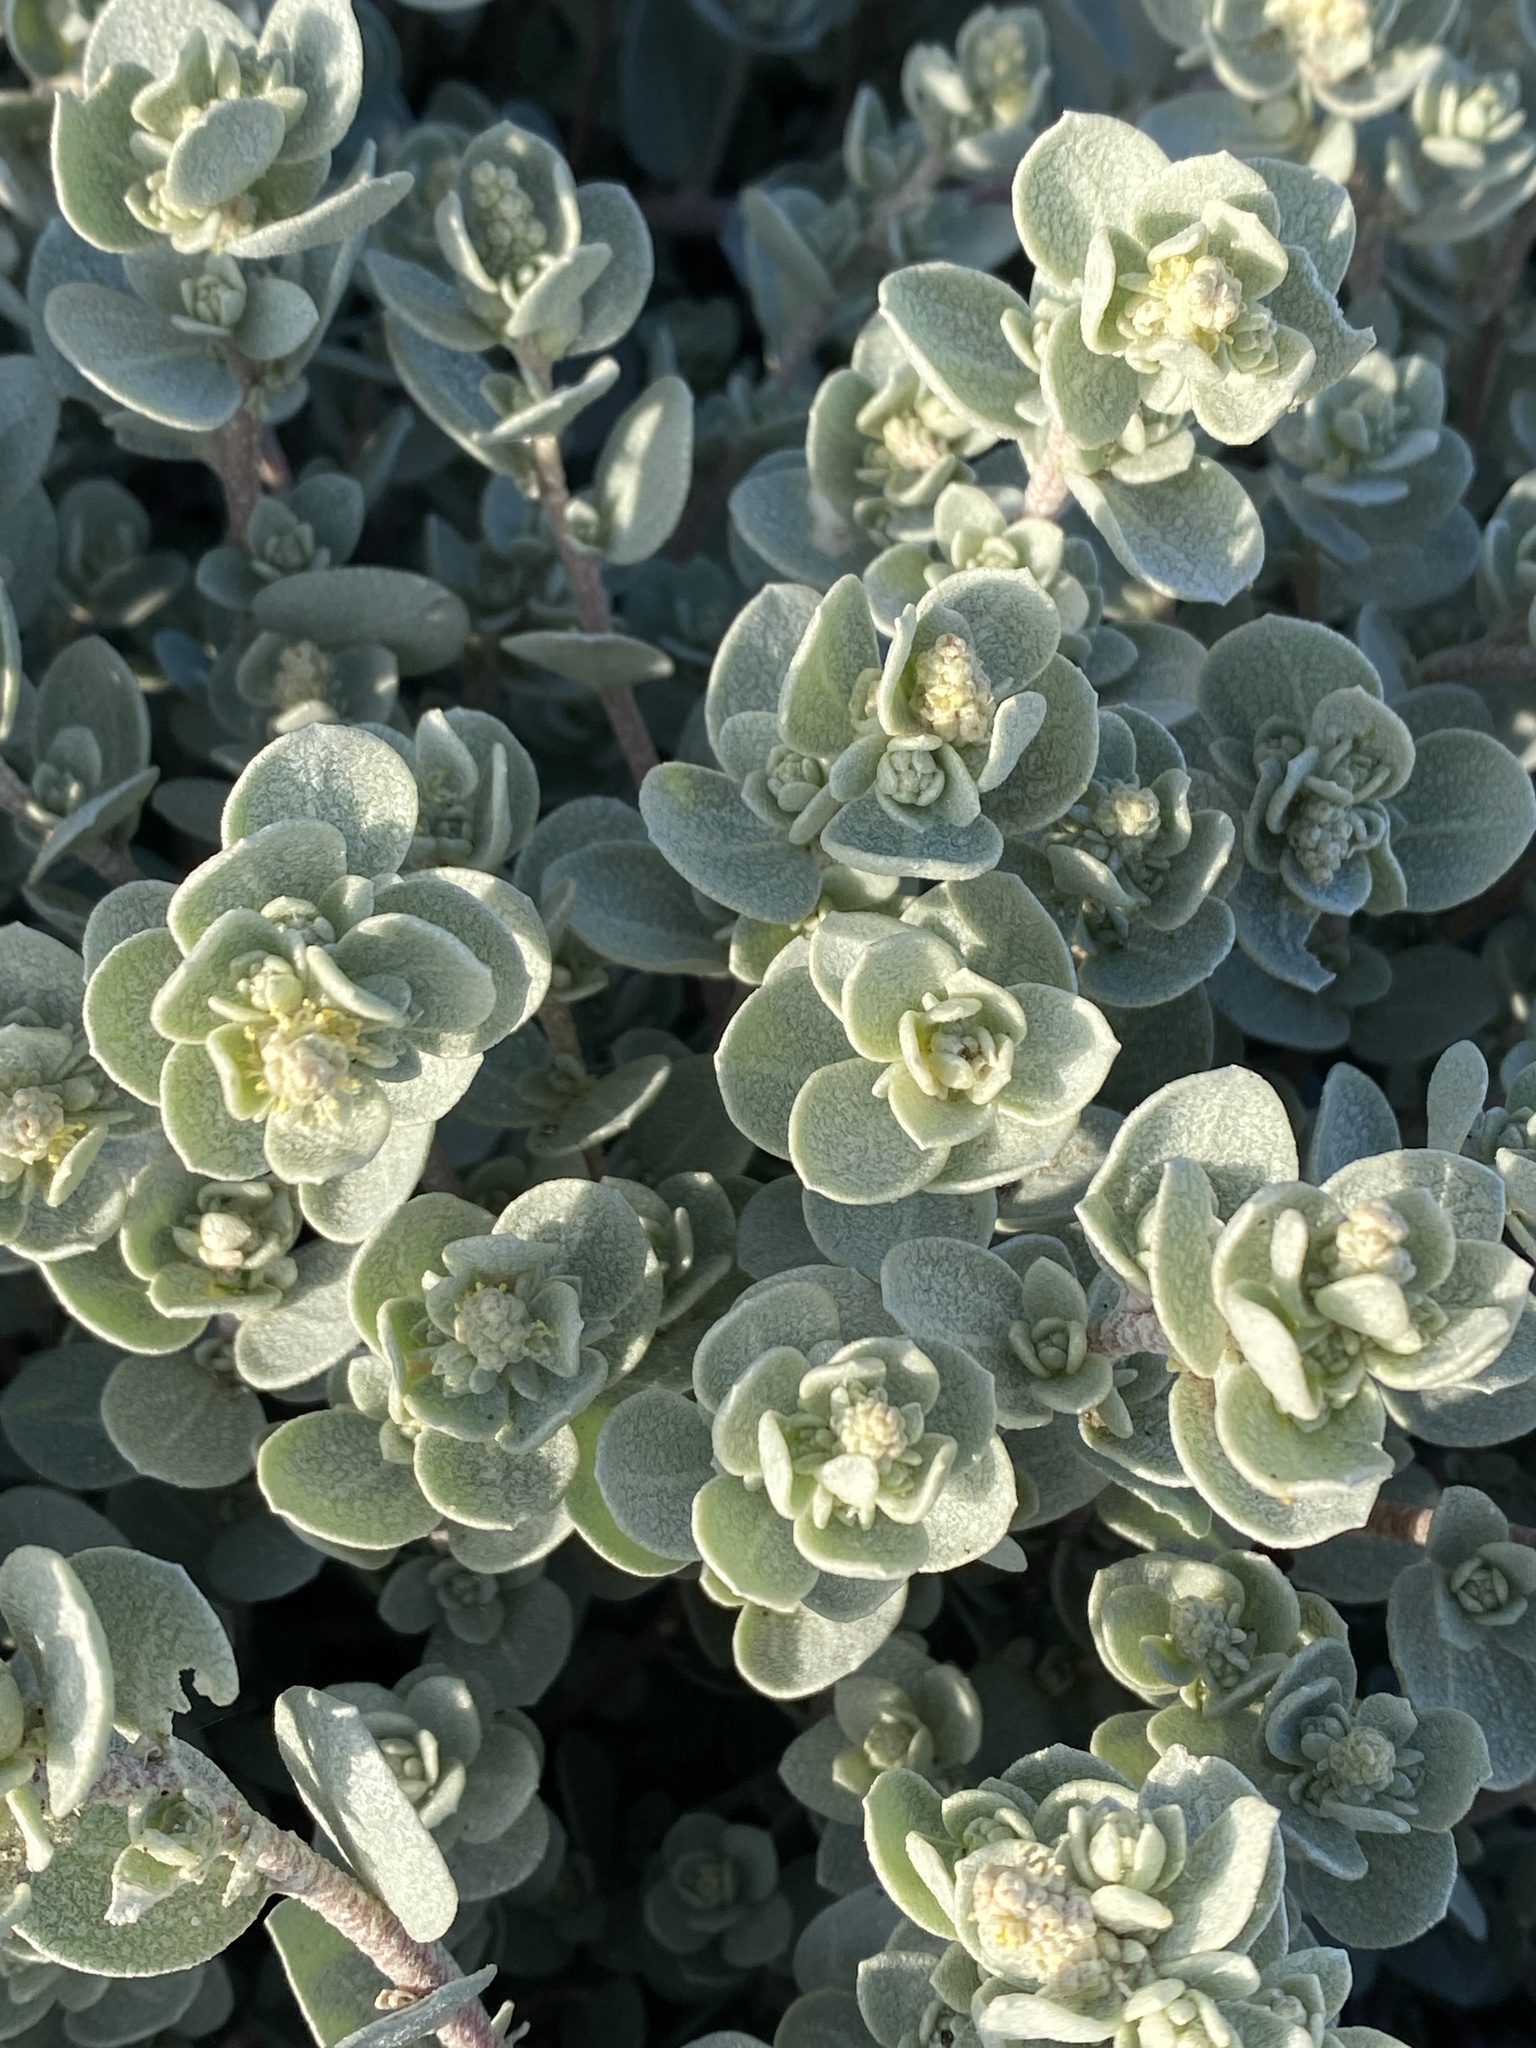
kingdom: Plantae
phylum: Tracheophyta
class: Magnoliopsida
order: Caryophyllales
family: Amaranthaceae
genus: Atriplex
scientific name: Atriplex leucophylla
